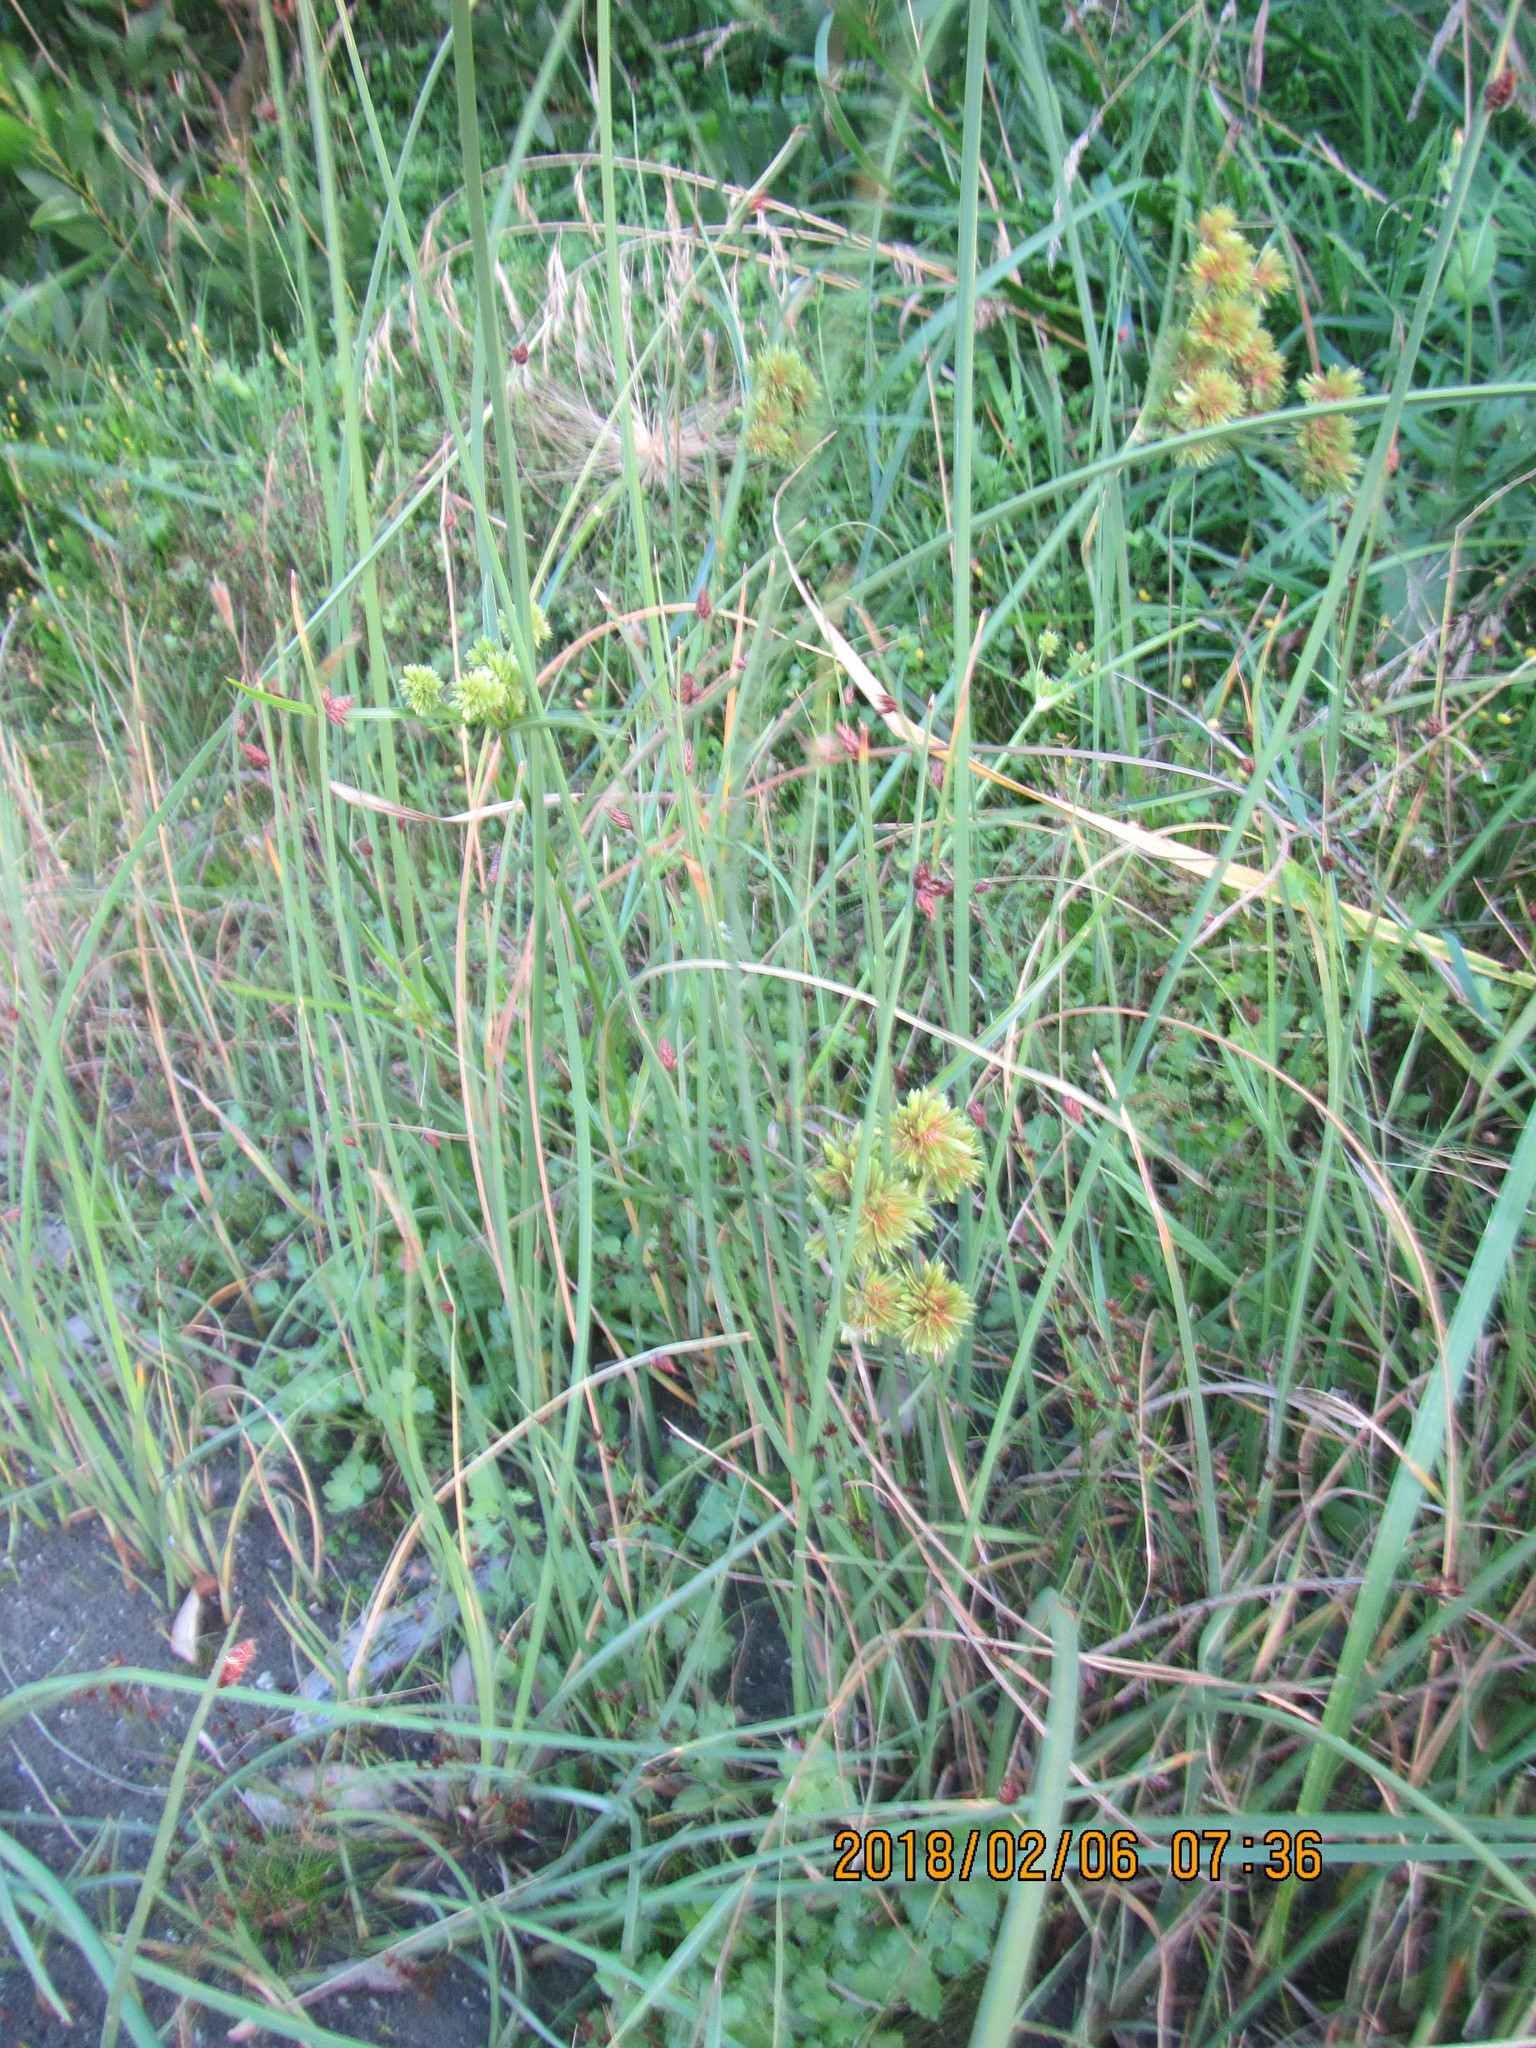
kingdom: Plantae
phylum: Tracheophyta
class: Liliopsida
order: Poales
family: Cyperaceae
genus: Cyperus
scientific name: Cyperus eragrostis
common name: Tall flatsedge
